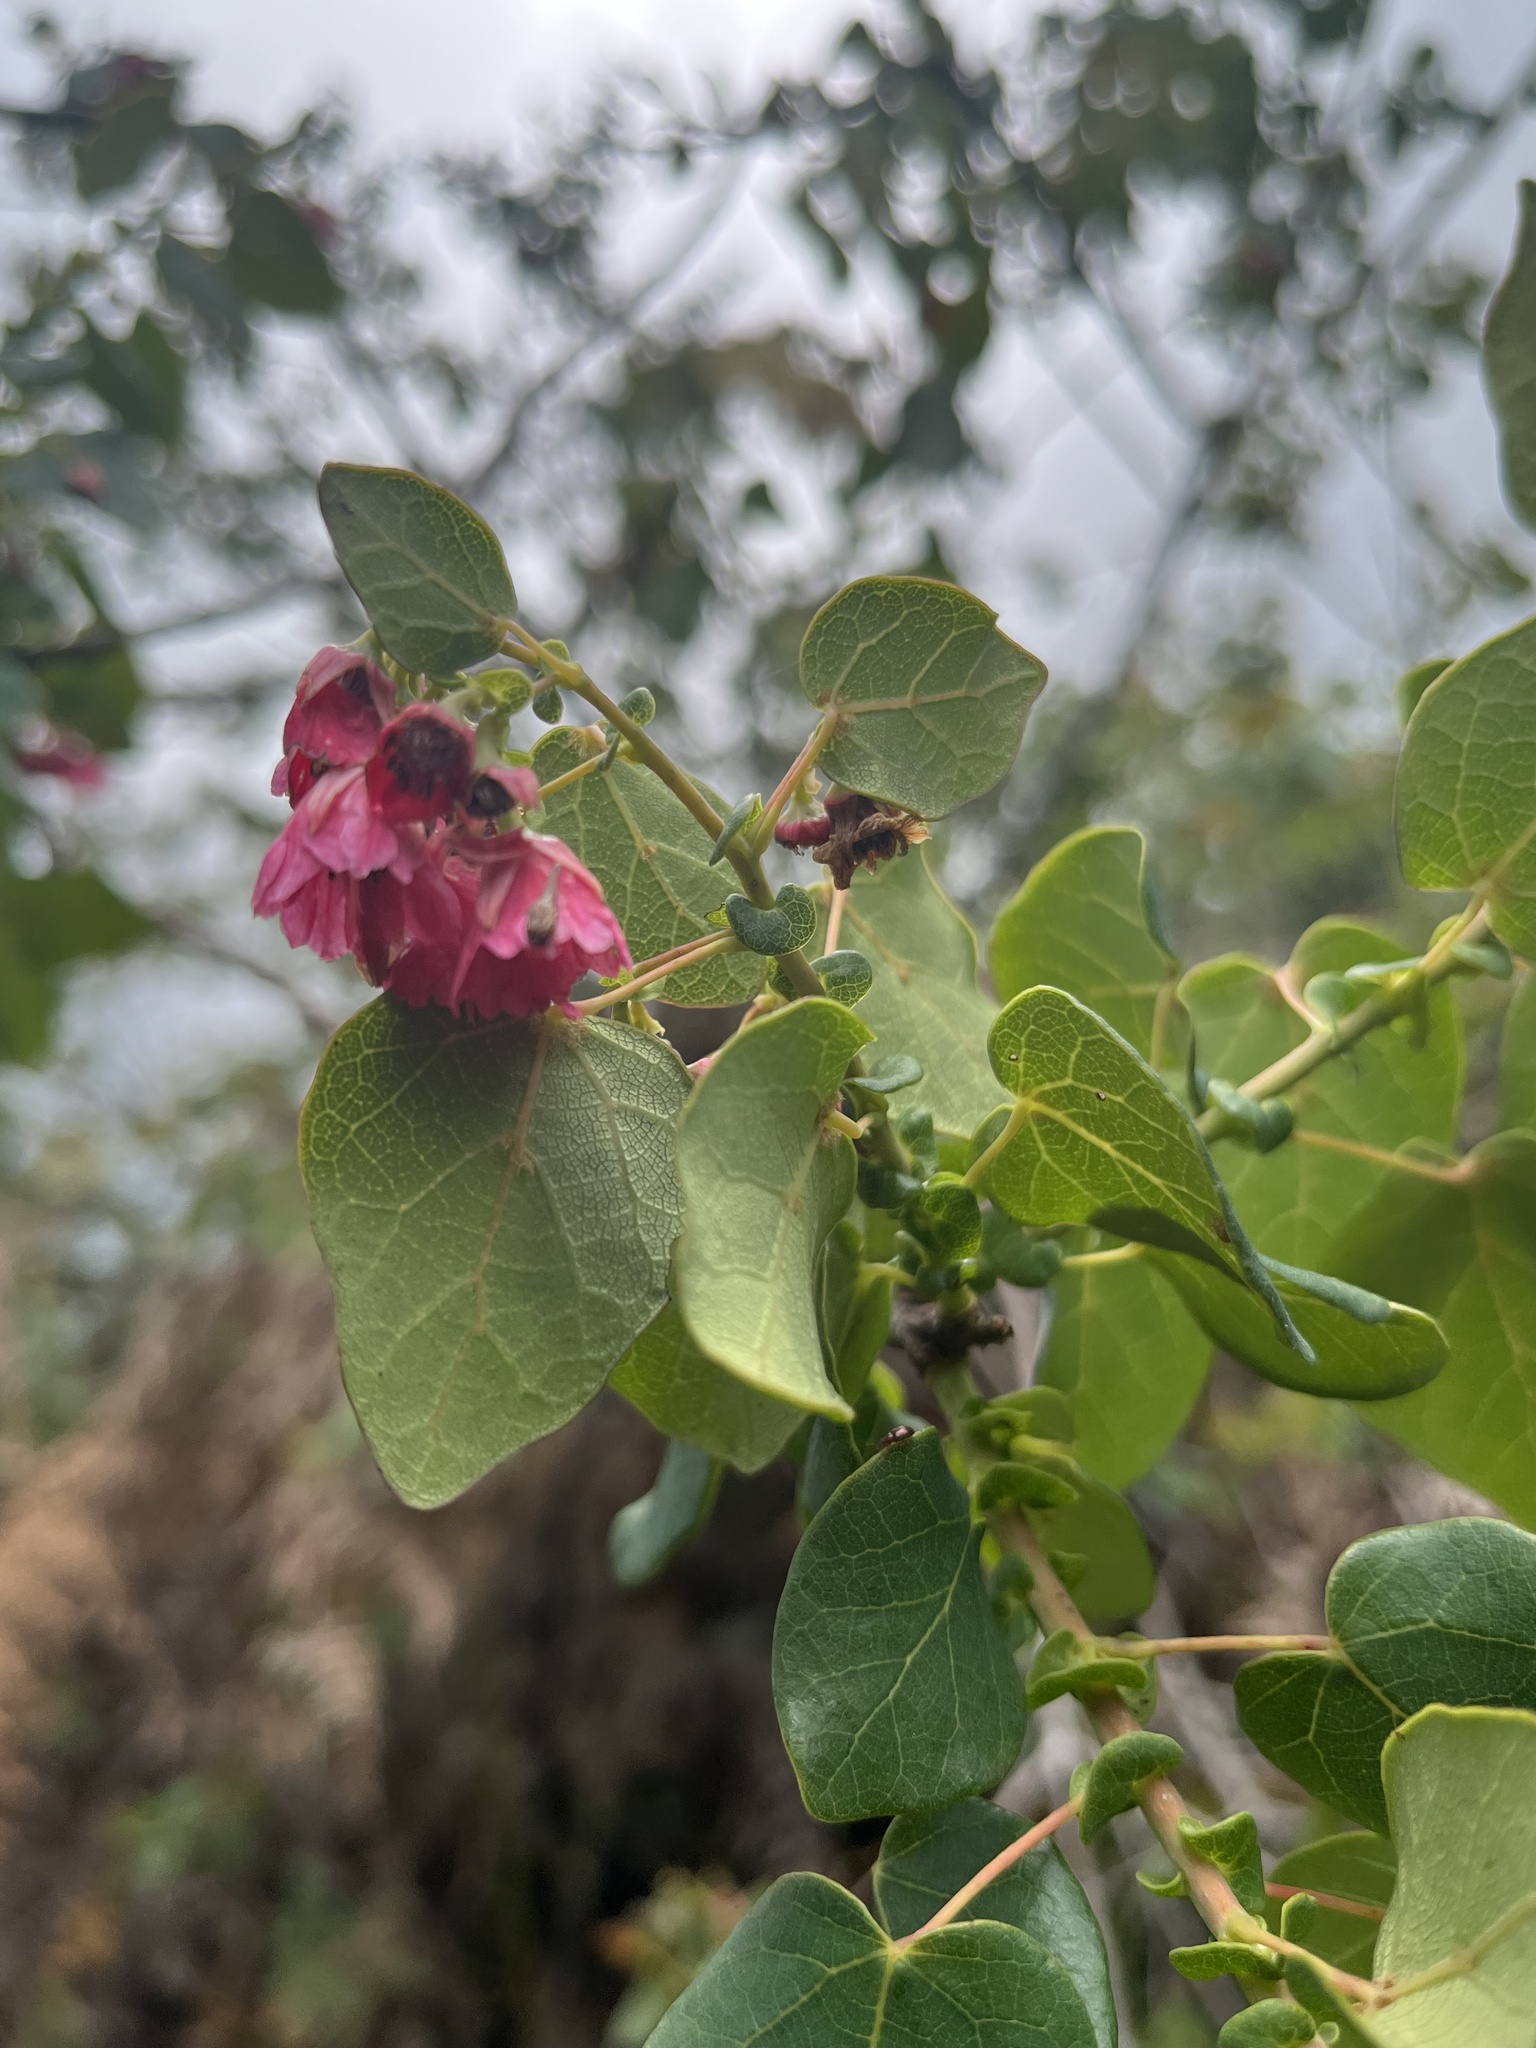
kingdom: Plantae
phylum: Tracheophyta
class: Magnoliopsida
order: Oxalidales
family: Elaeocarpaceae
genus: Vallea
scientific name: Vallea stipularis
